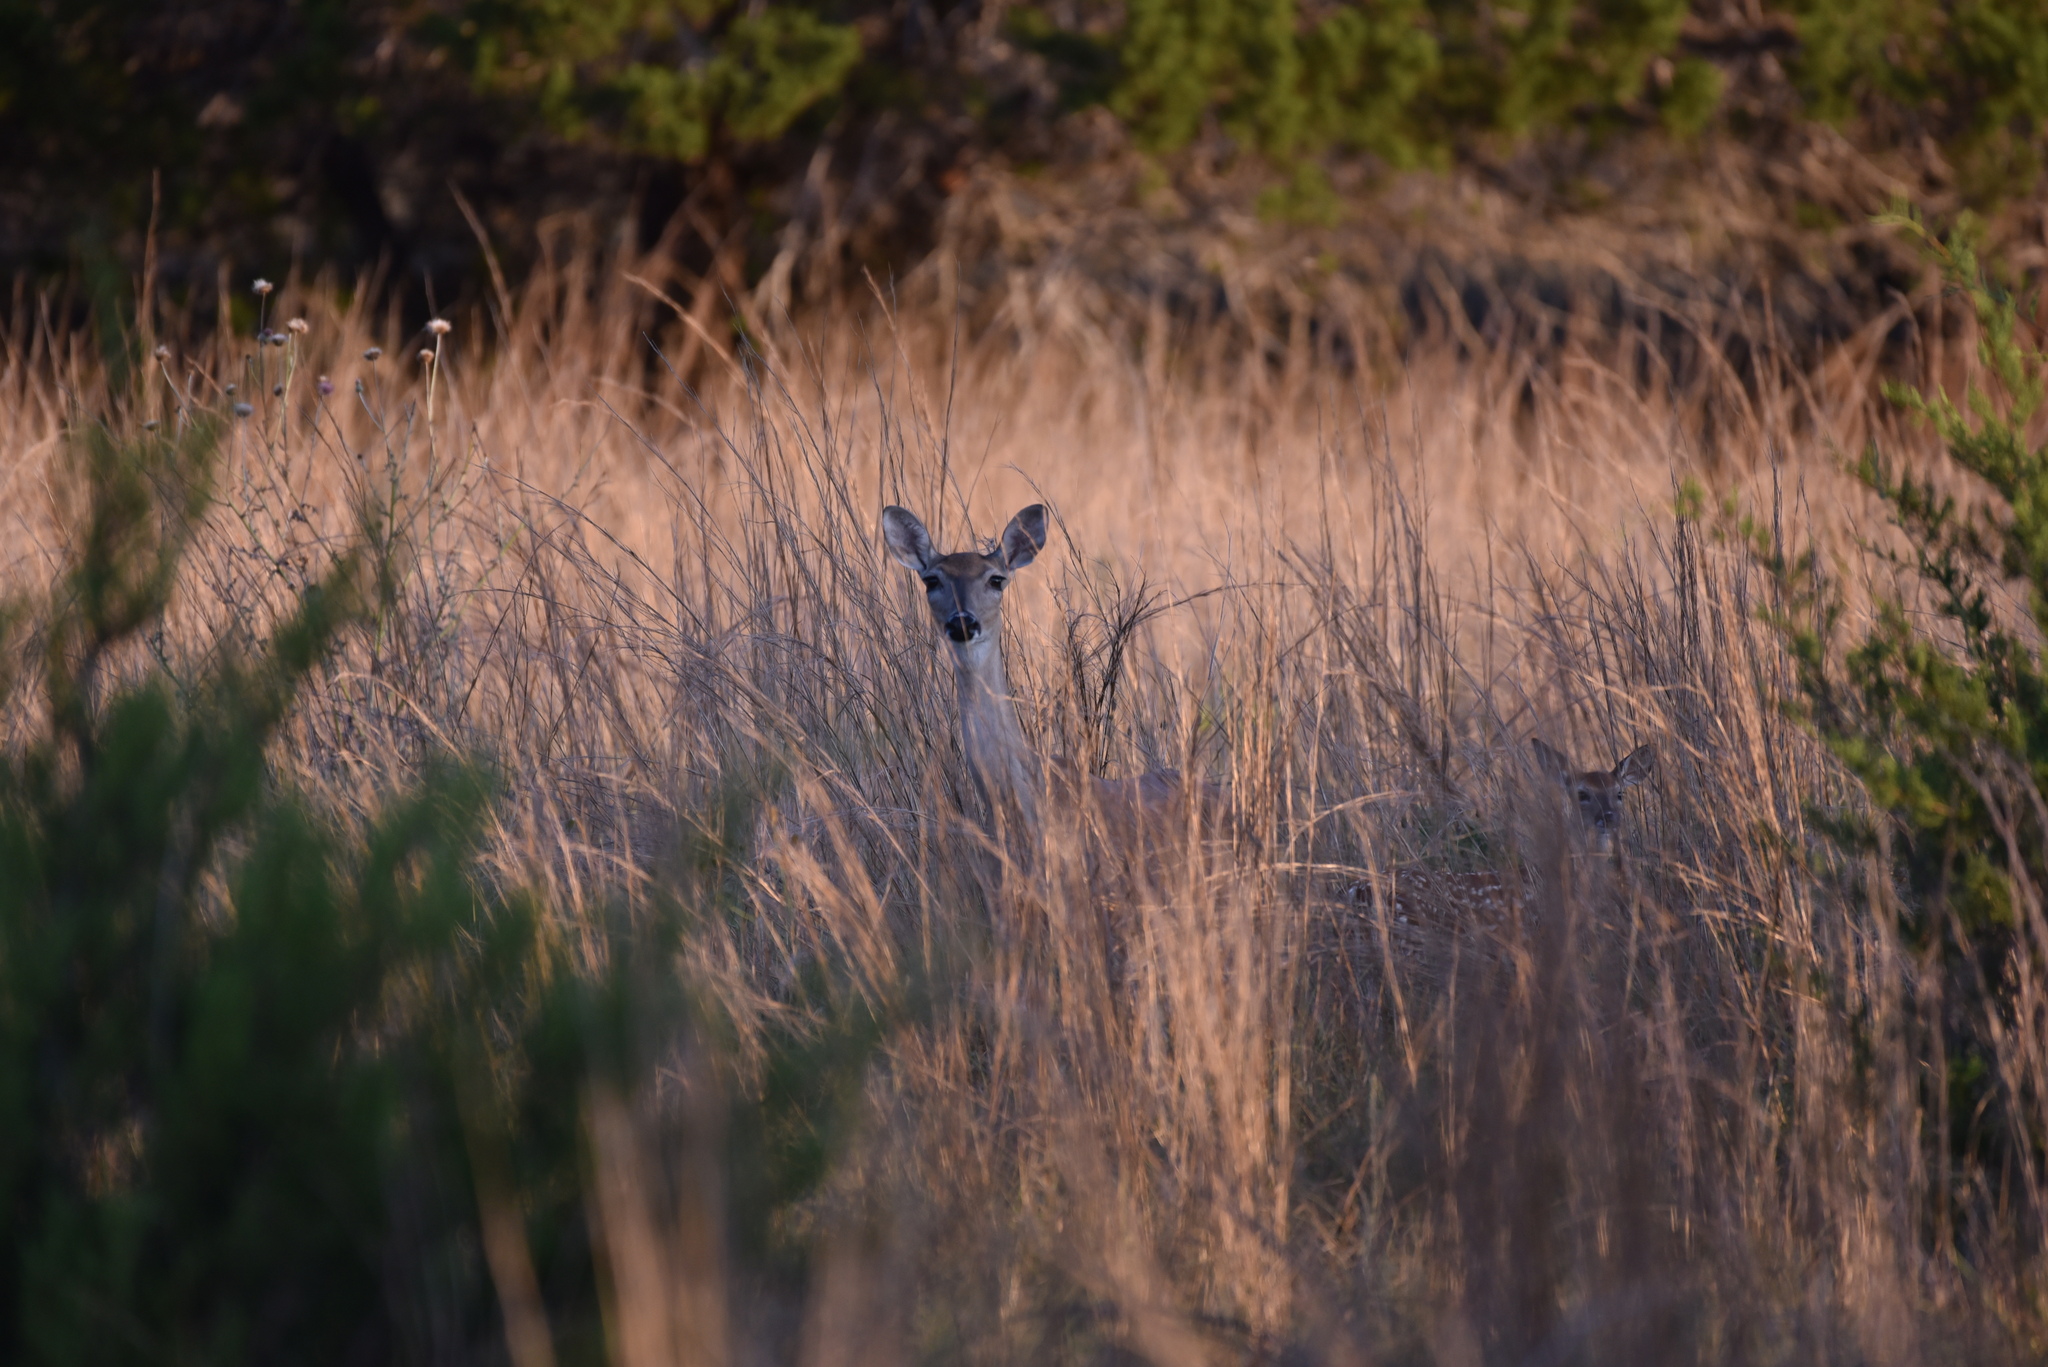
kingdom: Animalia
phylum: Chordata
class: Mammalia
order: Artiodactyla
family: Cervidae
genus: Odocoileus
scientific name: Odocoileus virginianus
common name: White-tailed deer
